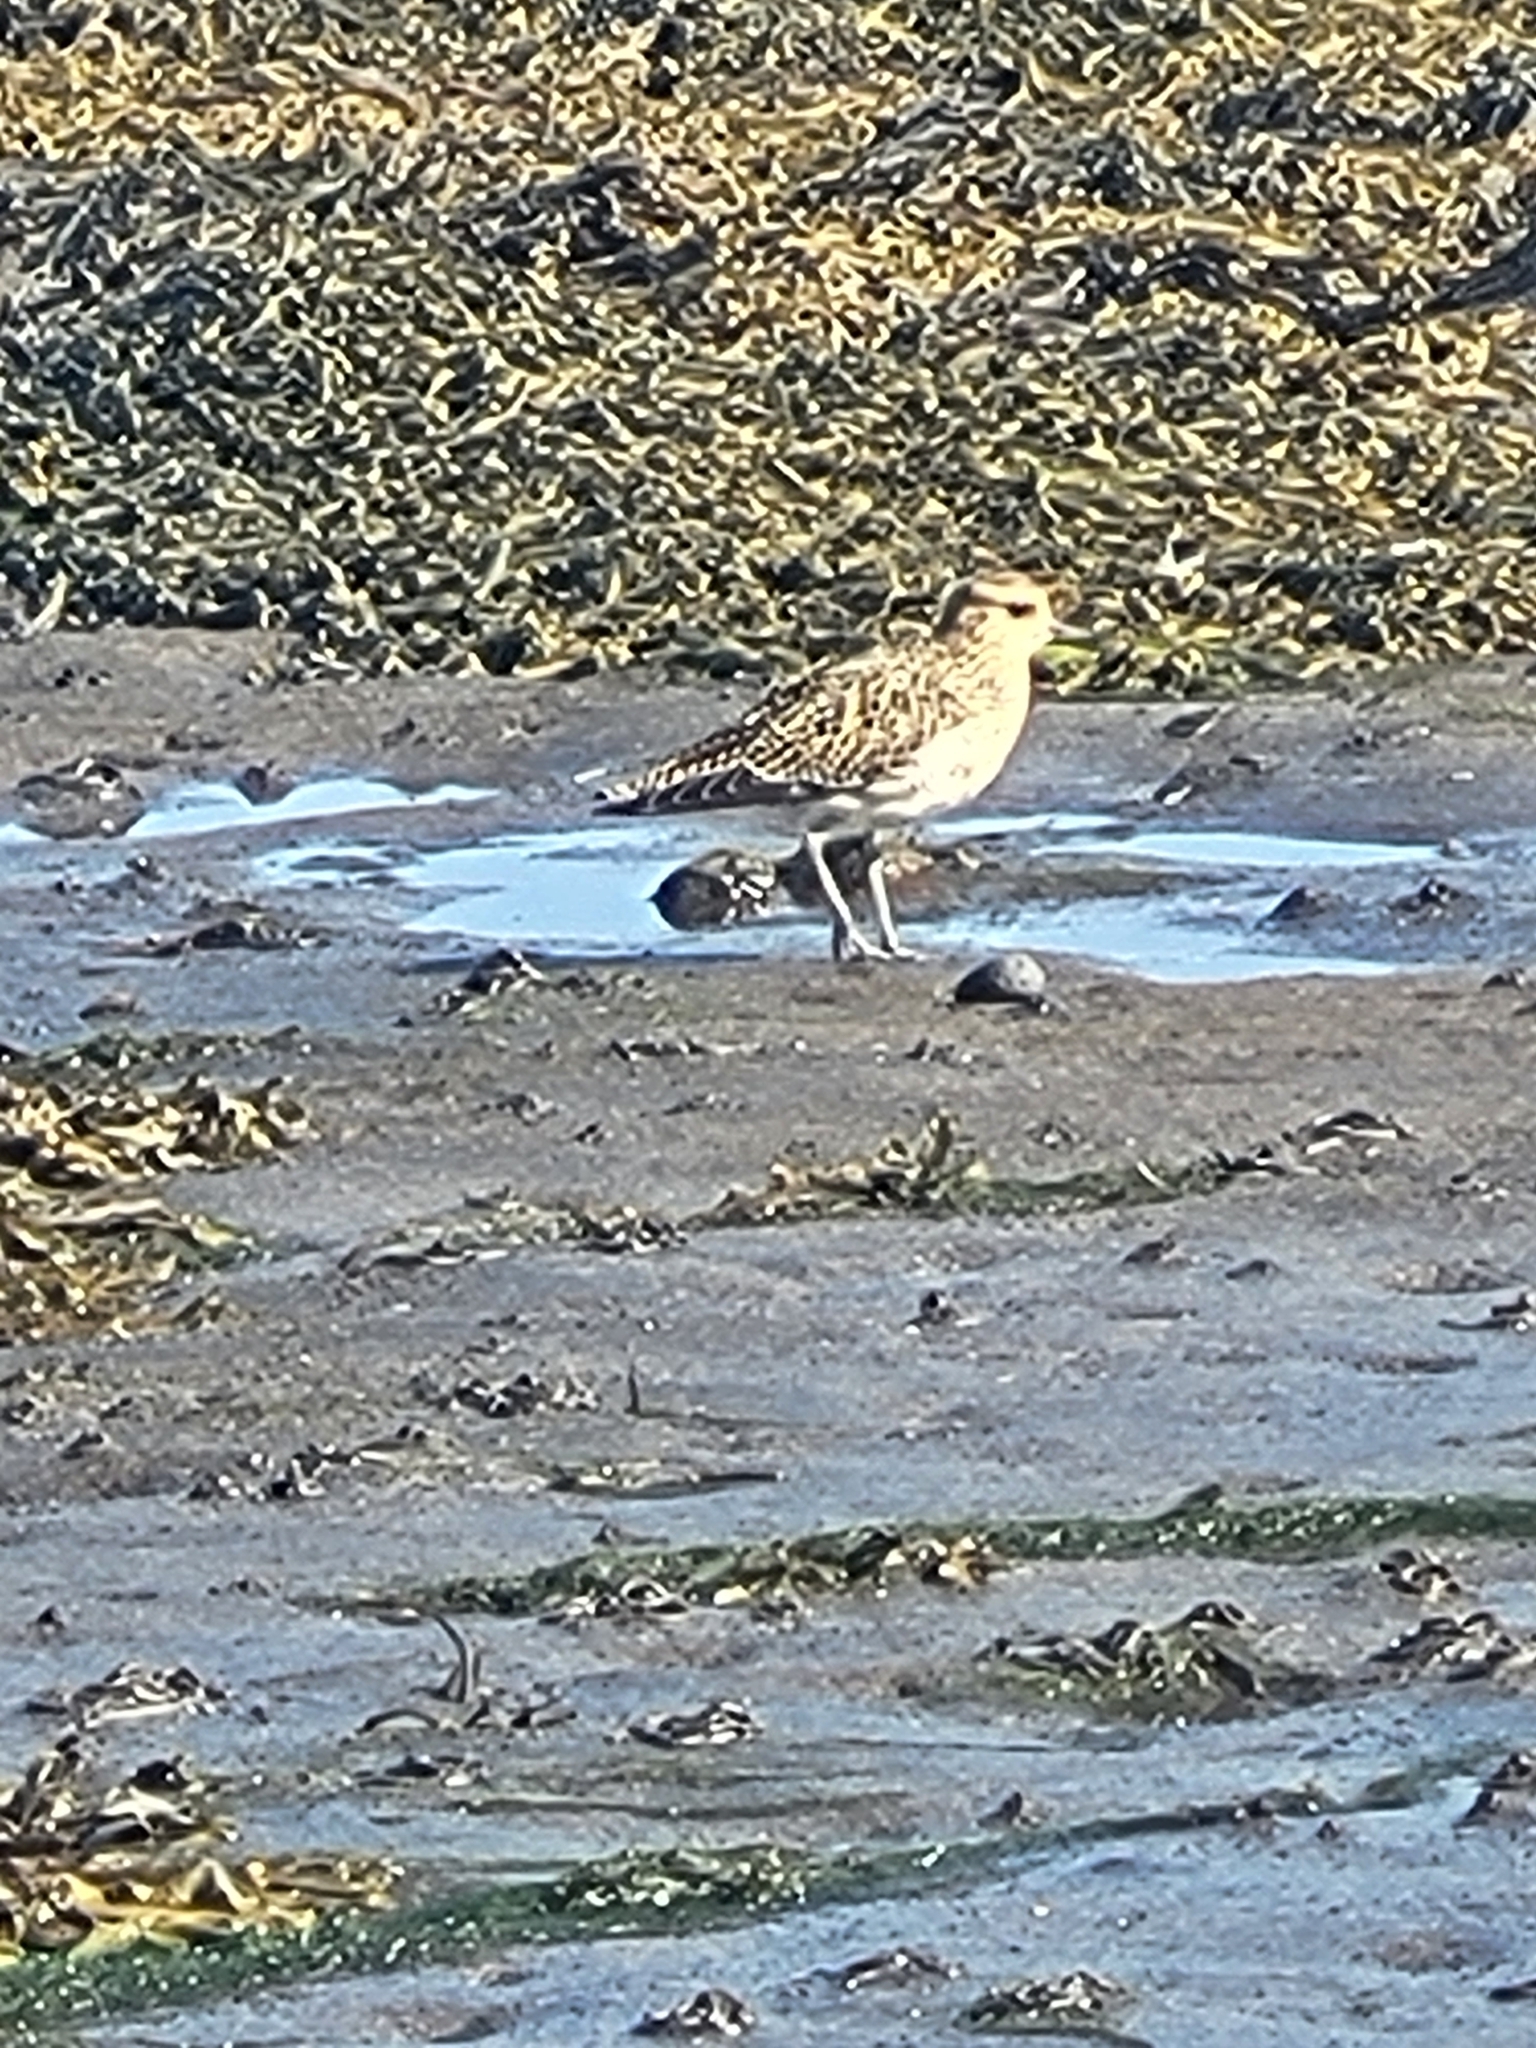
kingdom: Animalia
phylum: Chordata
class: Aves
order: Charadriiformes
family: Charadriidae
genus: Pluvialis
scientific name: Pluvialis apricaria
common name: European golden plover
